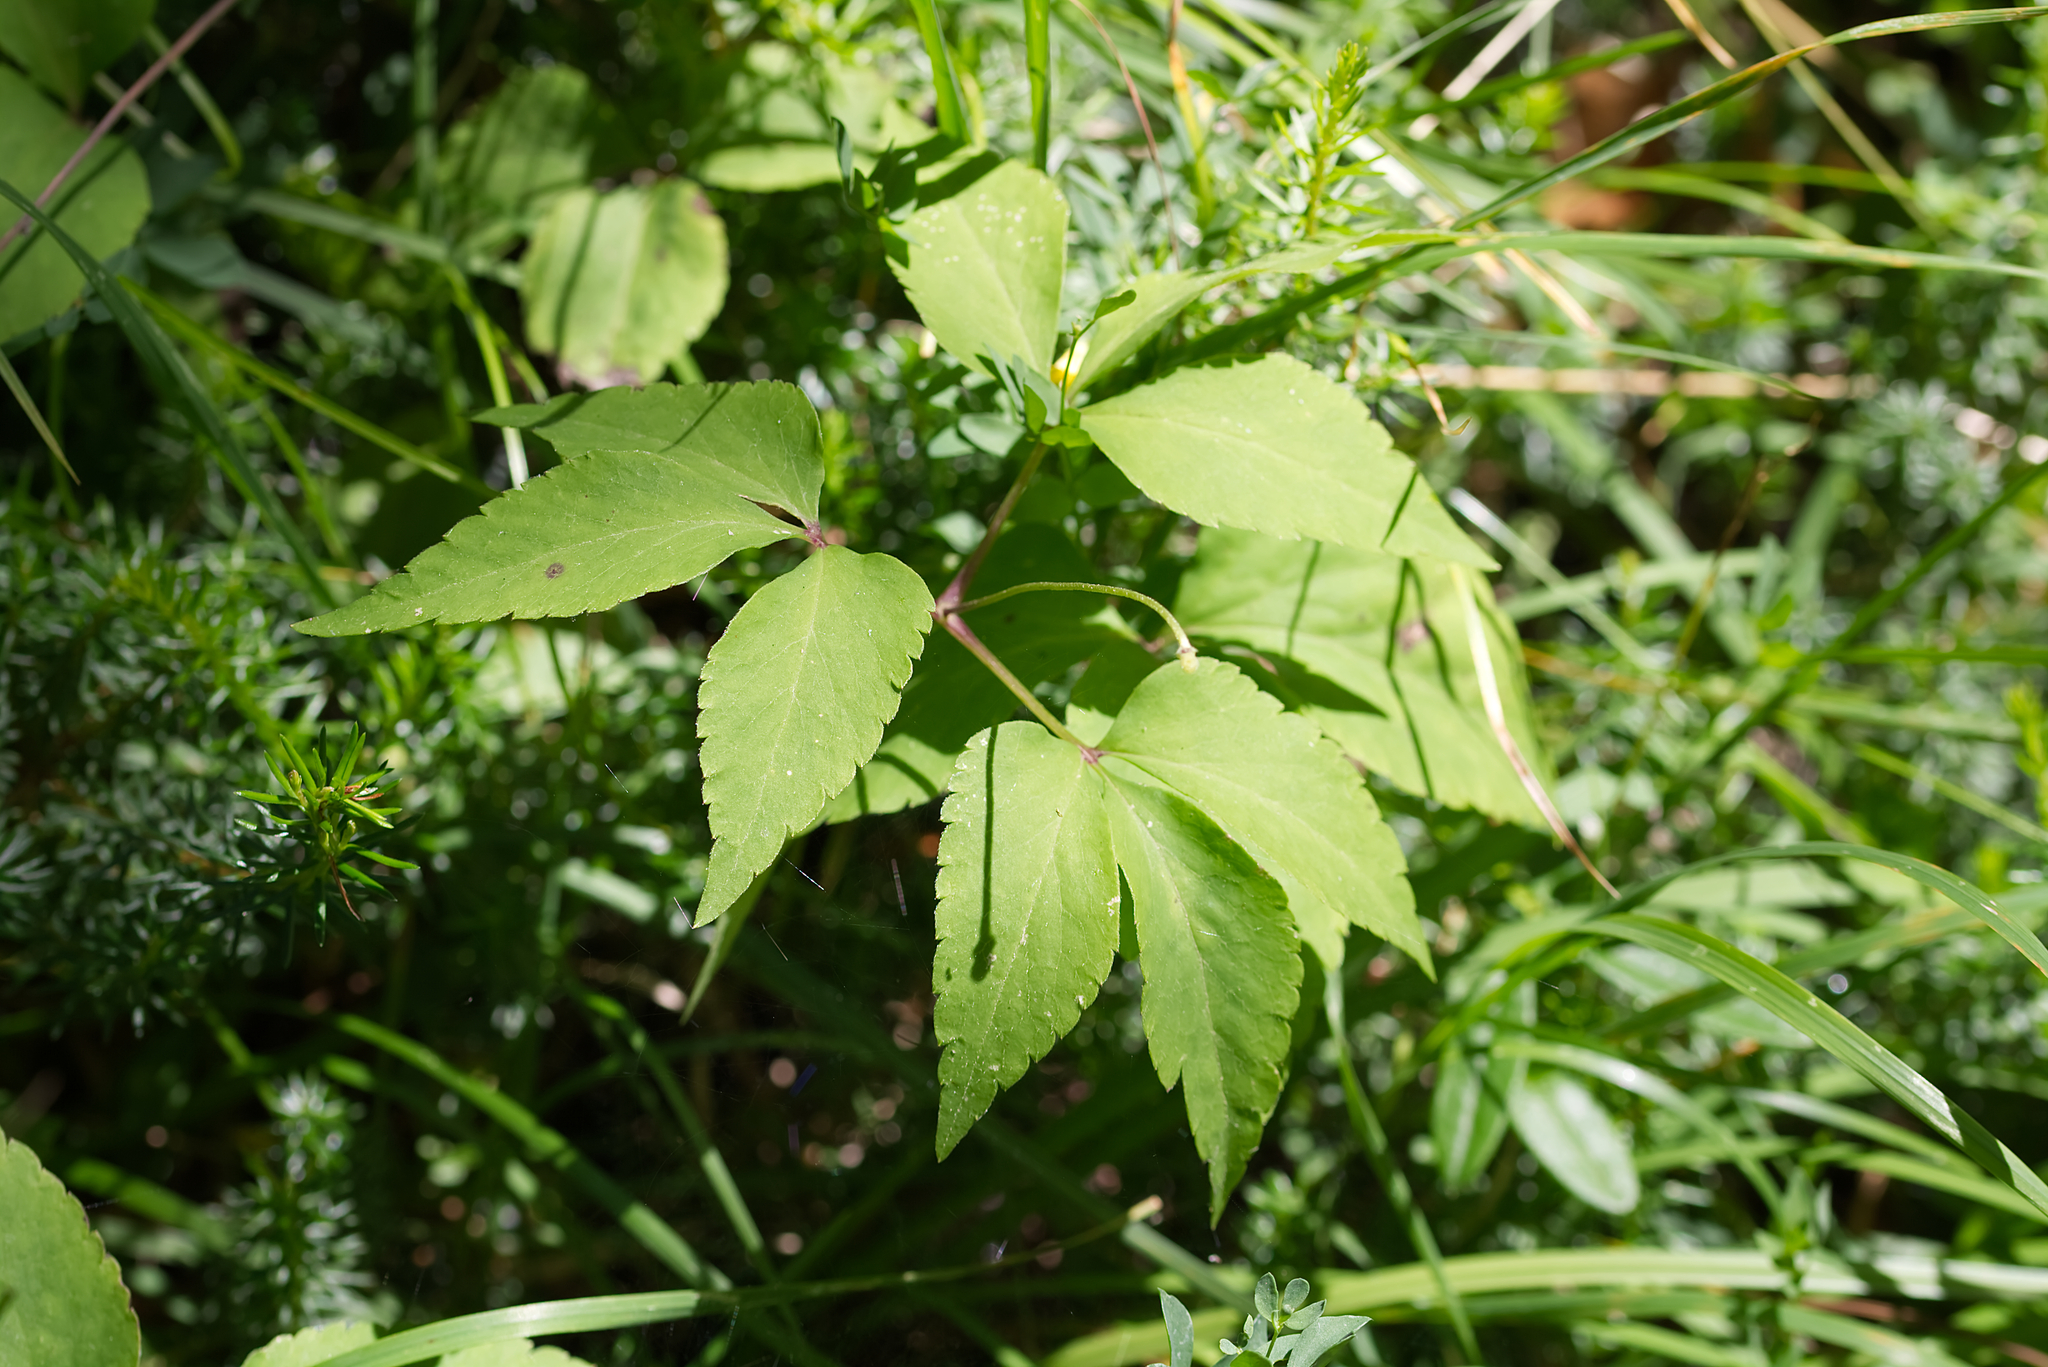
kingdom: Plantae
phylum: Tracheophyta
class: Magnoliopsida
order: Ranunculales
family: Ranunculaceae
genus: Anemone
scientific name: Anemone trifolia
